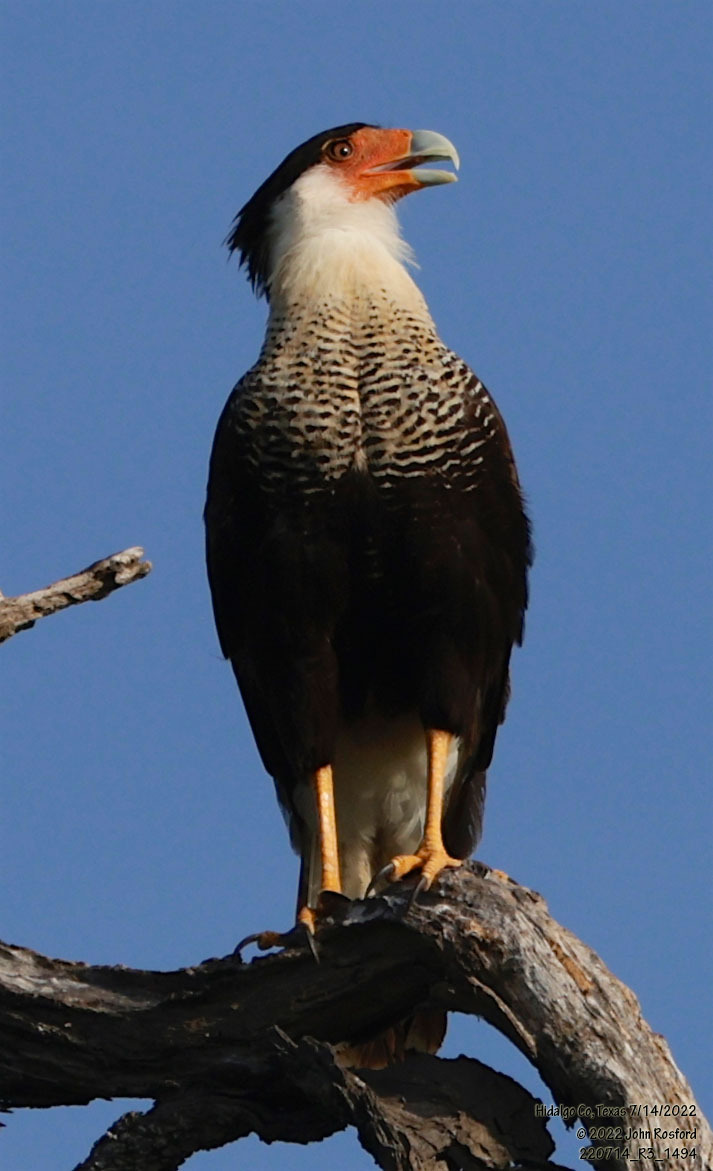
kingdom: Animalia
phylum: Chordata
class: Aves
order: Falconiformes
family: Falconidae
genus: Caracara
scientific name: Caracara plancus
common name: Southern caracara
